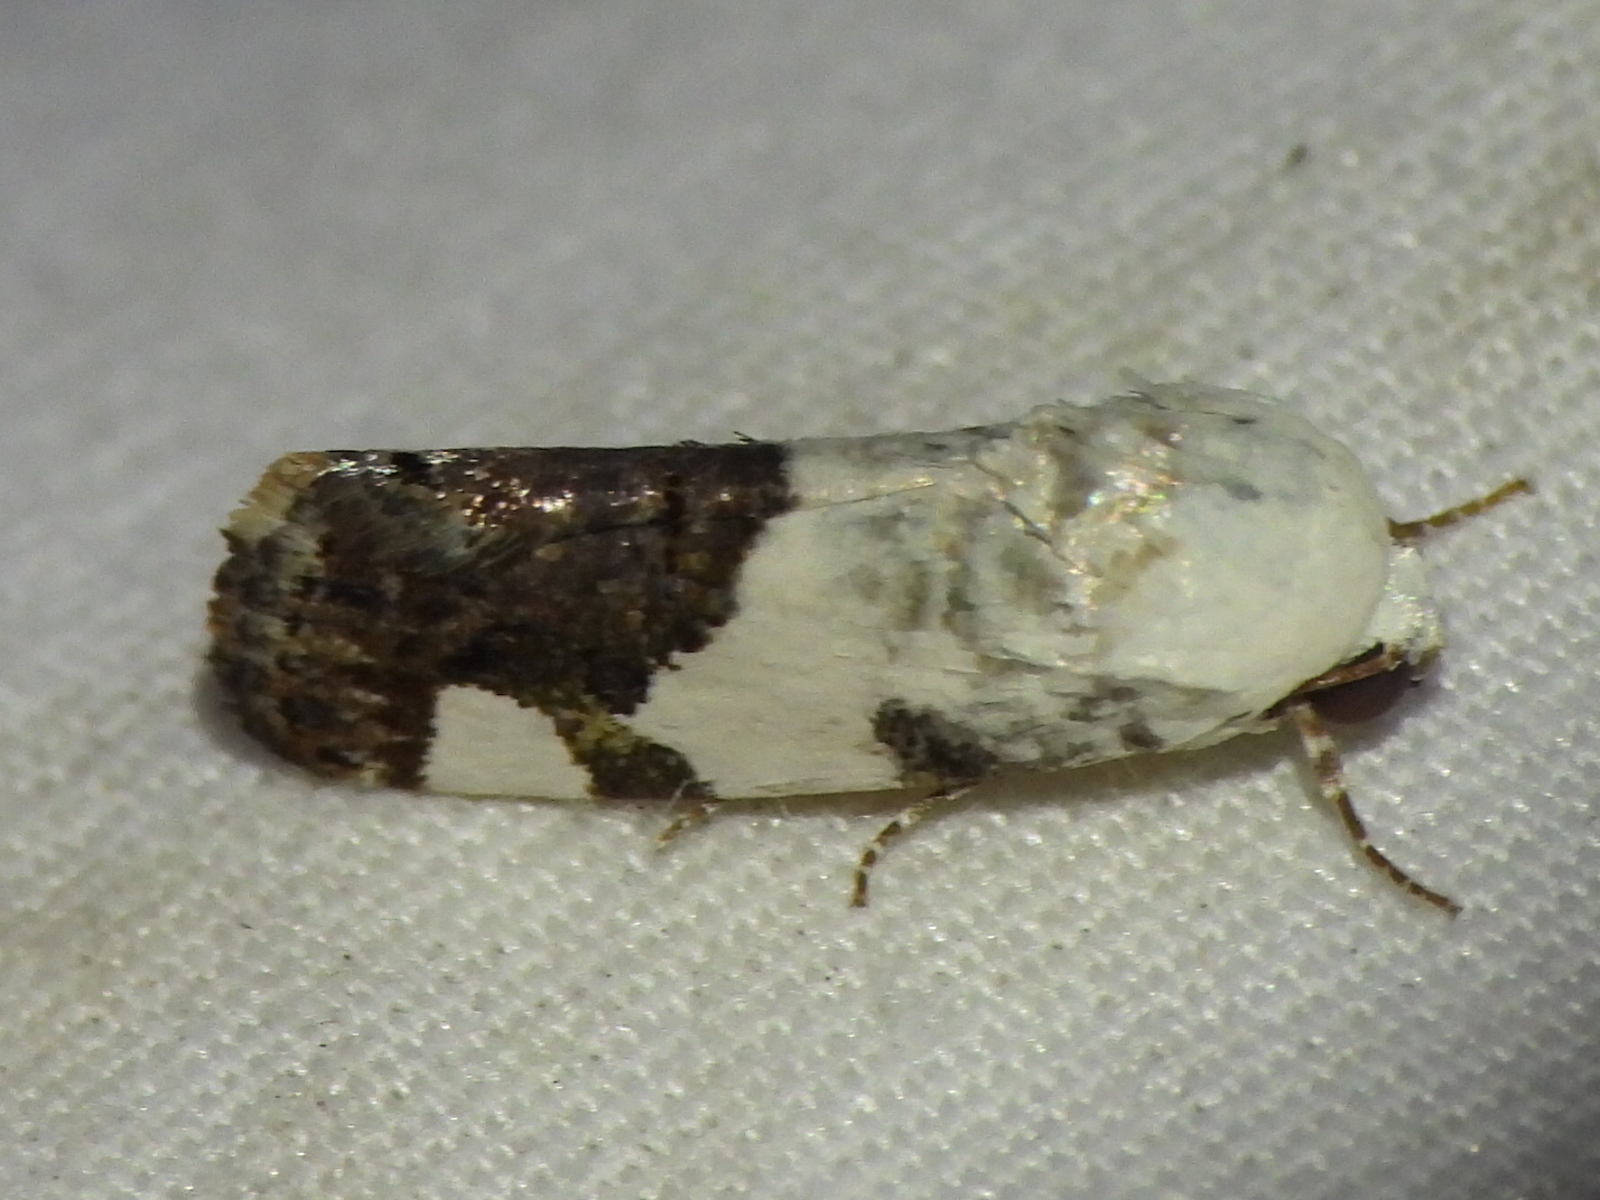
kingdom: Animalia
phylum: Arthropoda
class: Insecta
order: Lepidoptera
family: Noctuidae
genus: Acontia
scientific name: Acontia quadriplaga
